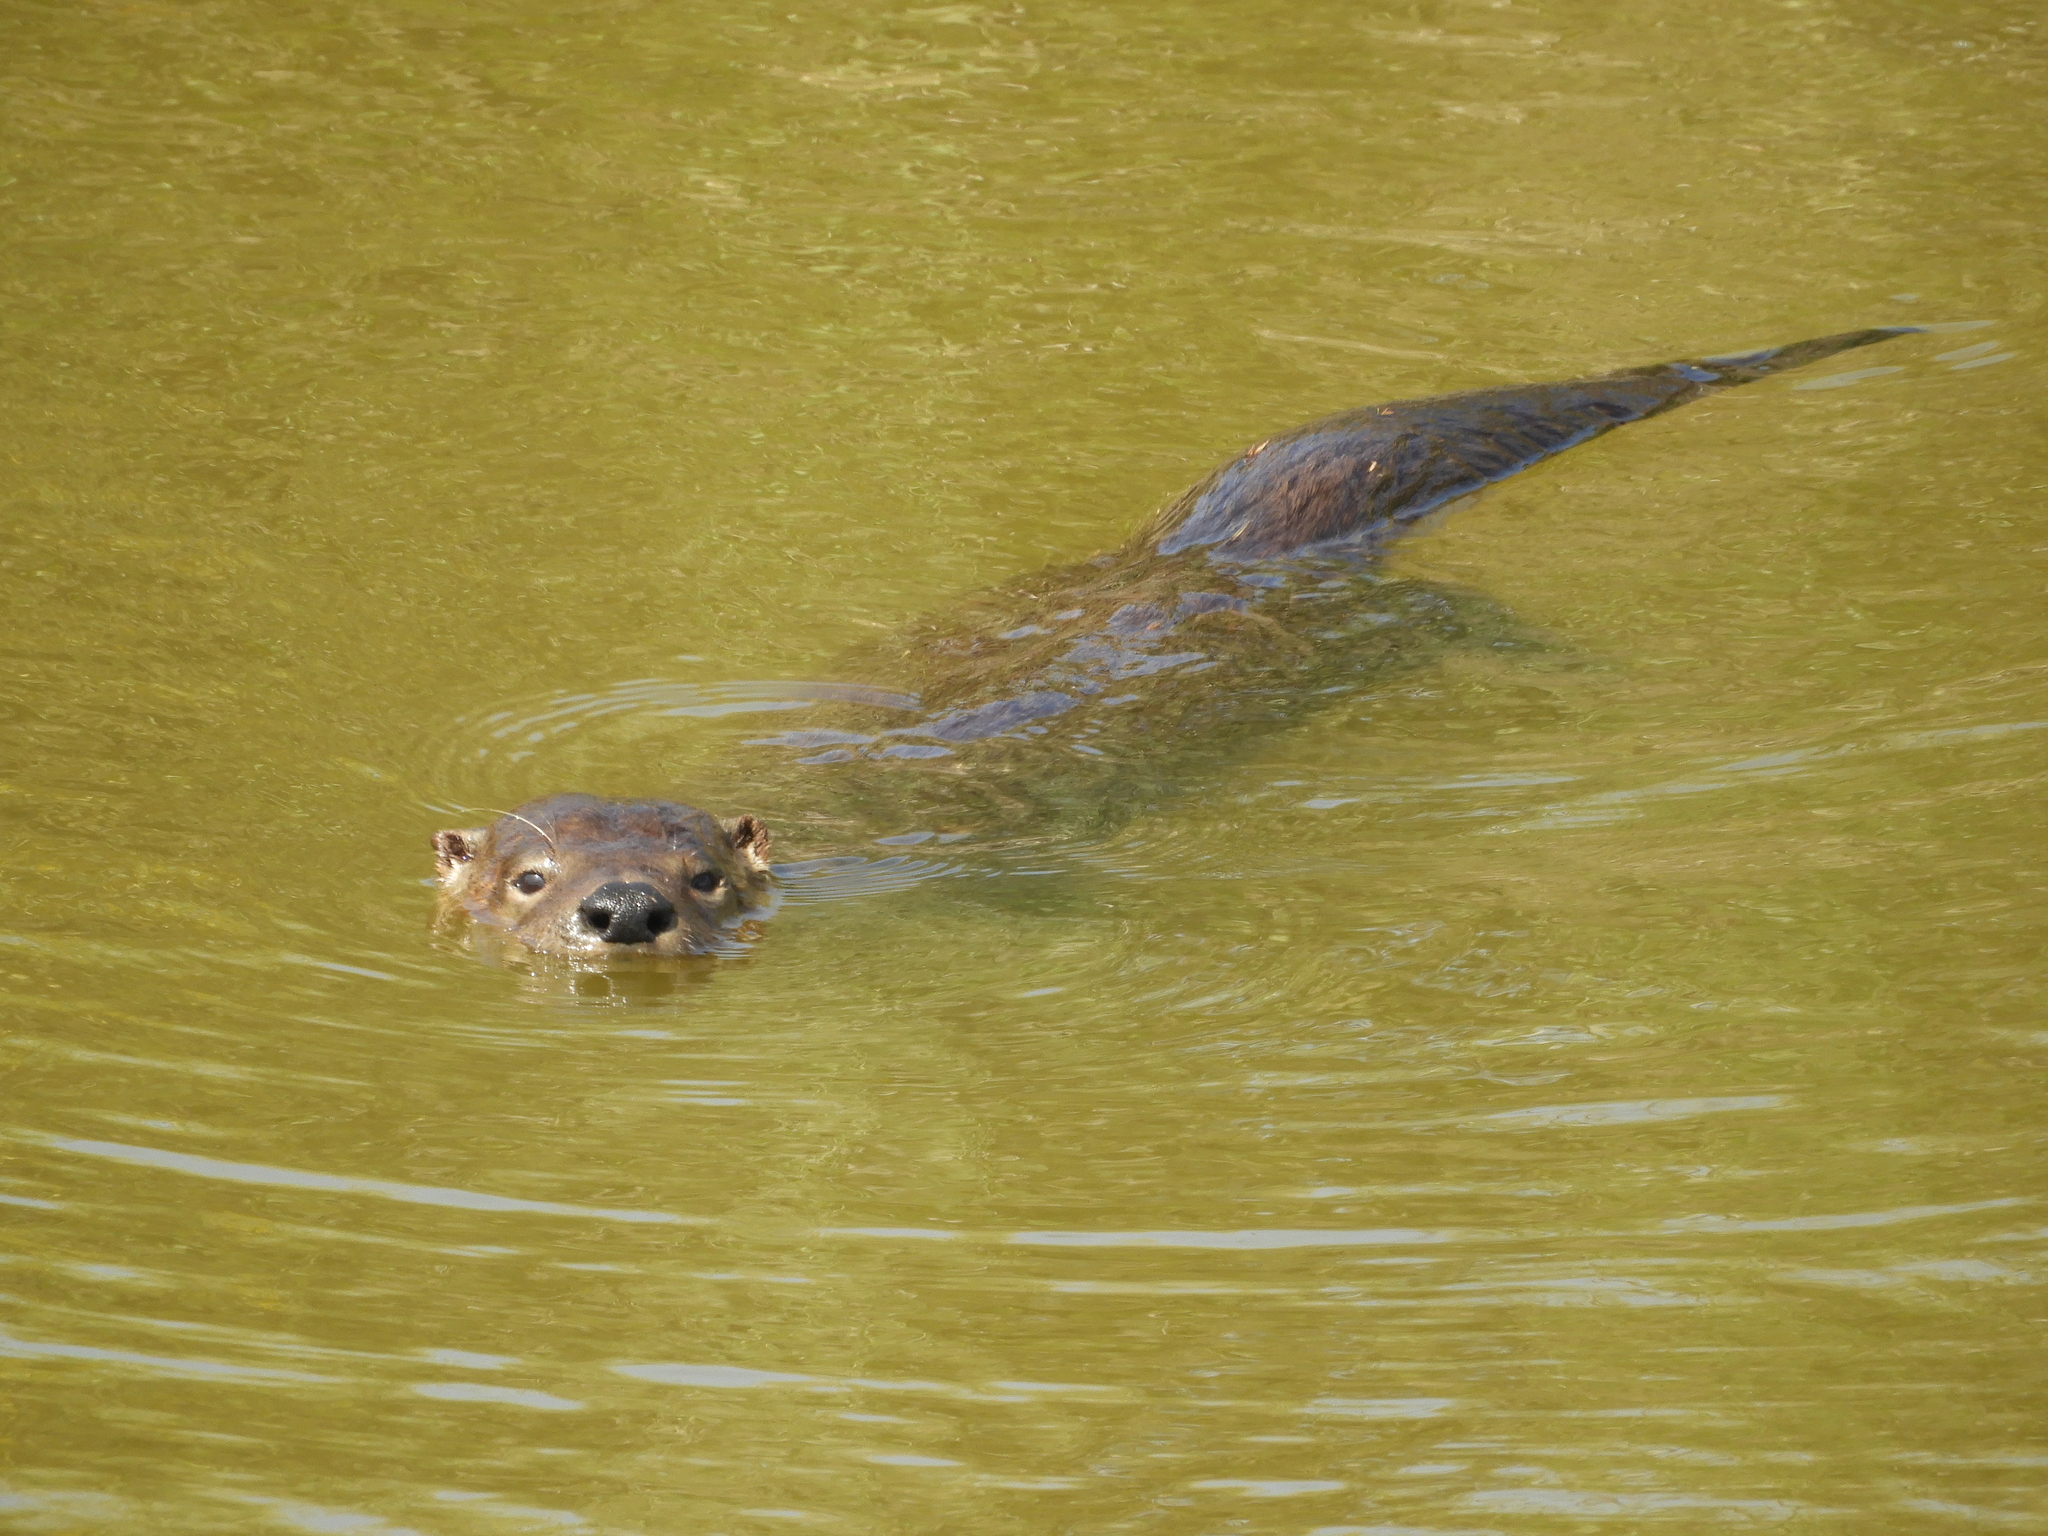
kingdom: Animalia
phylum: Chordata
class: Mammalia
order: Carnivora
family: Mustelidae
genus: Lontra
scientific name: Lontra canadensis
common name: North american river otter
